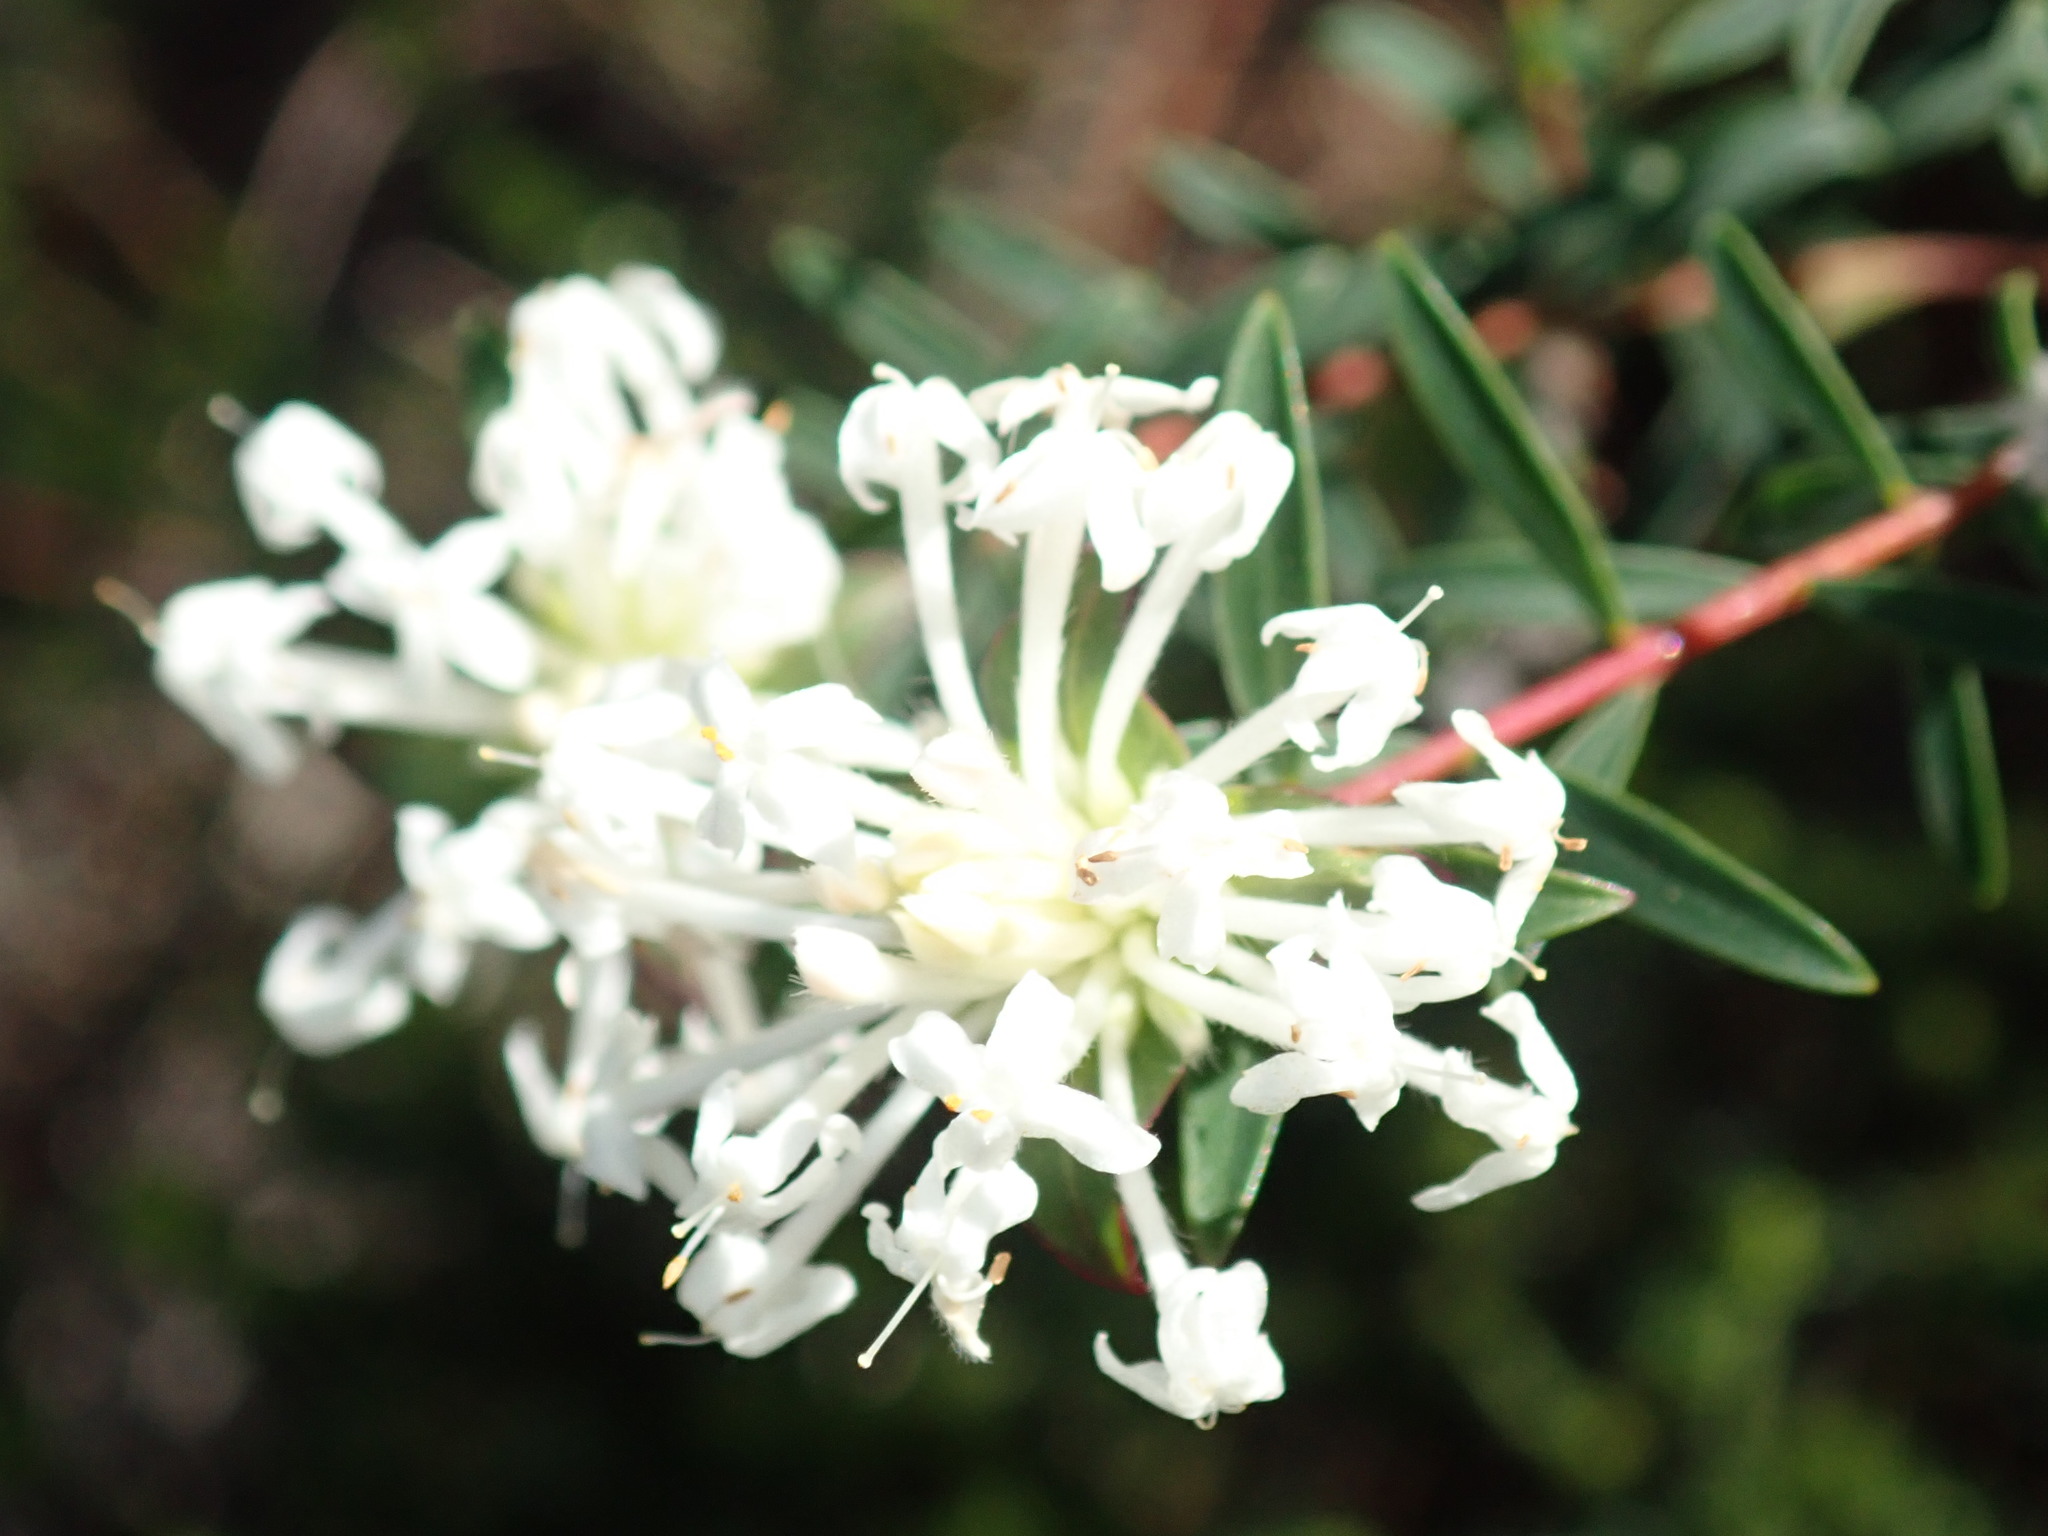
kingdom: Plantae
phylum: Tracheophyta
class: Magnoliopsida
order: Malvales
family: Thymelaeaceae
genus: Pimelea
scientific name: Pimelea linifolia
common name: Queen-of-the-bush
